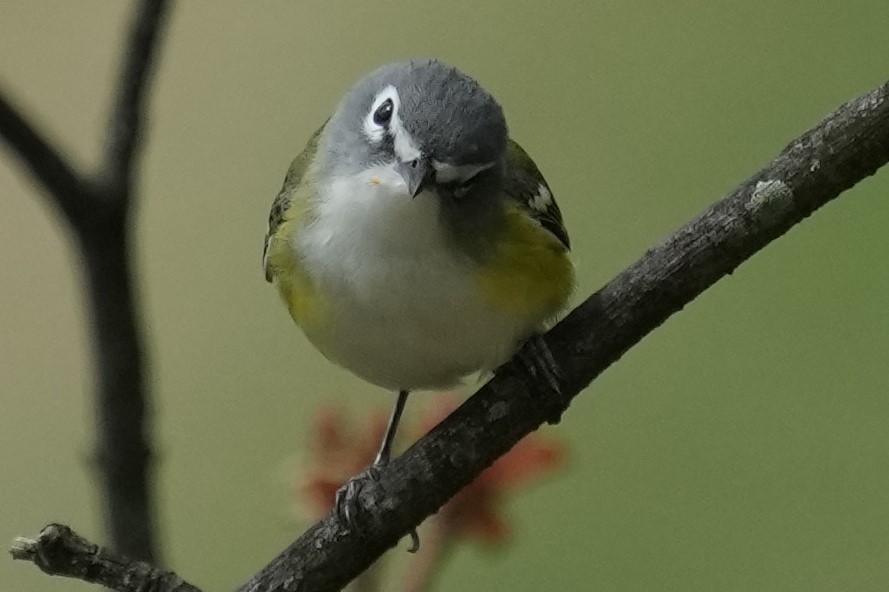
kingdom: Animalia
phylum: Chordata
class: Aves
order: Passeriformes
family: Vireonidae
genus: Vireo
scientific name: Vireo solitarius
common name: Blue-headed vireo
